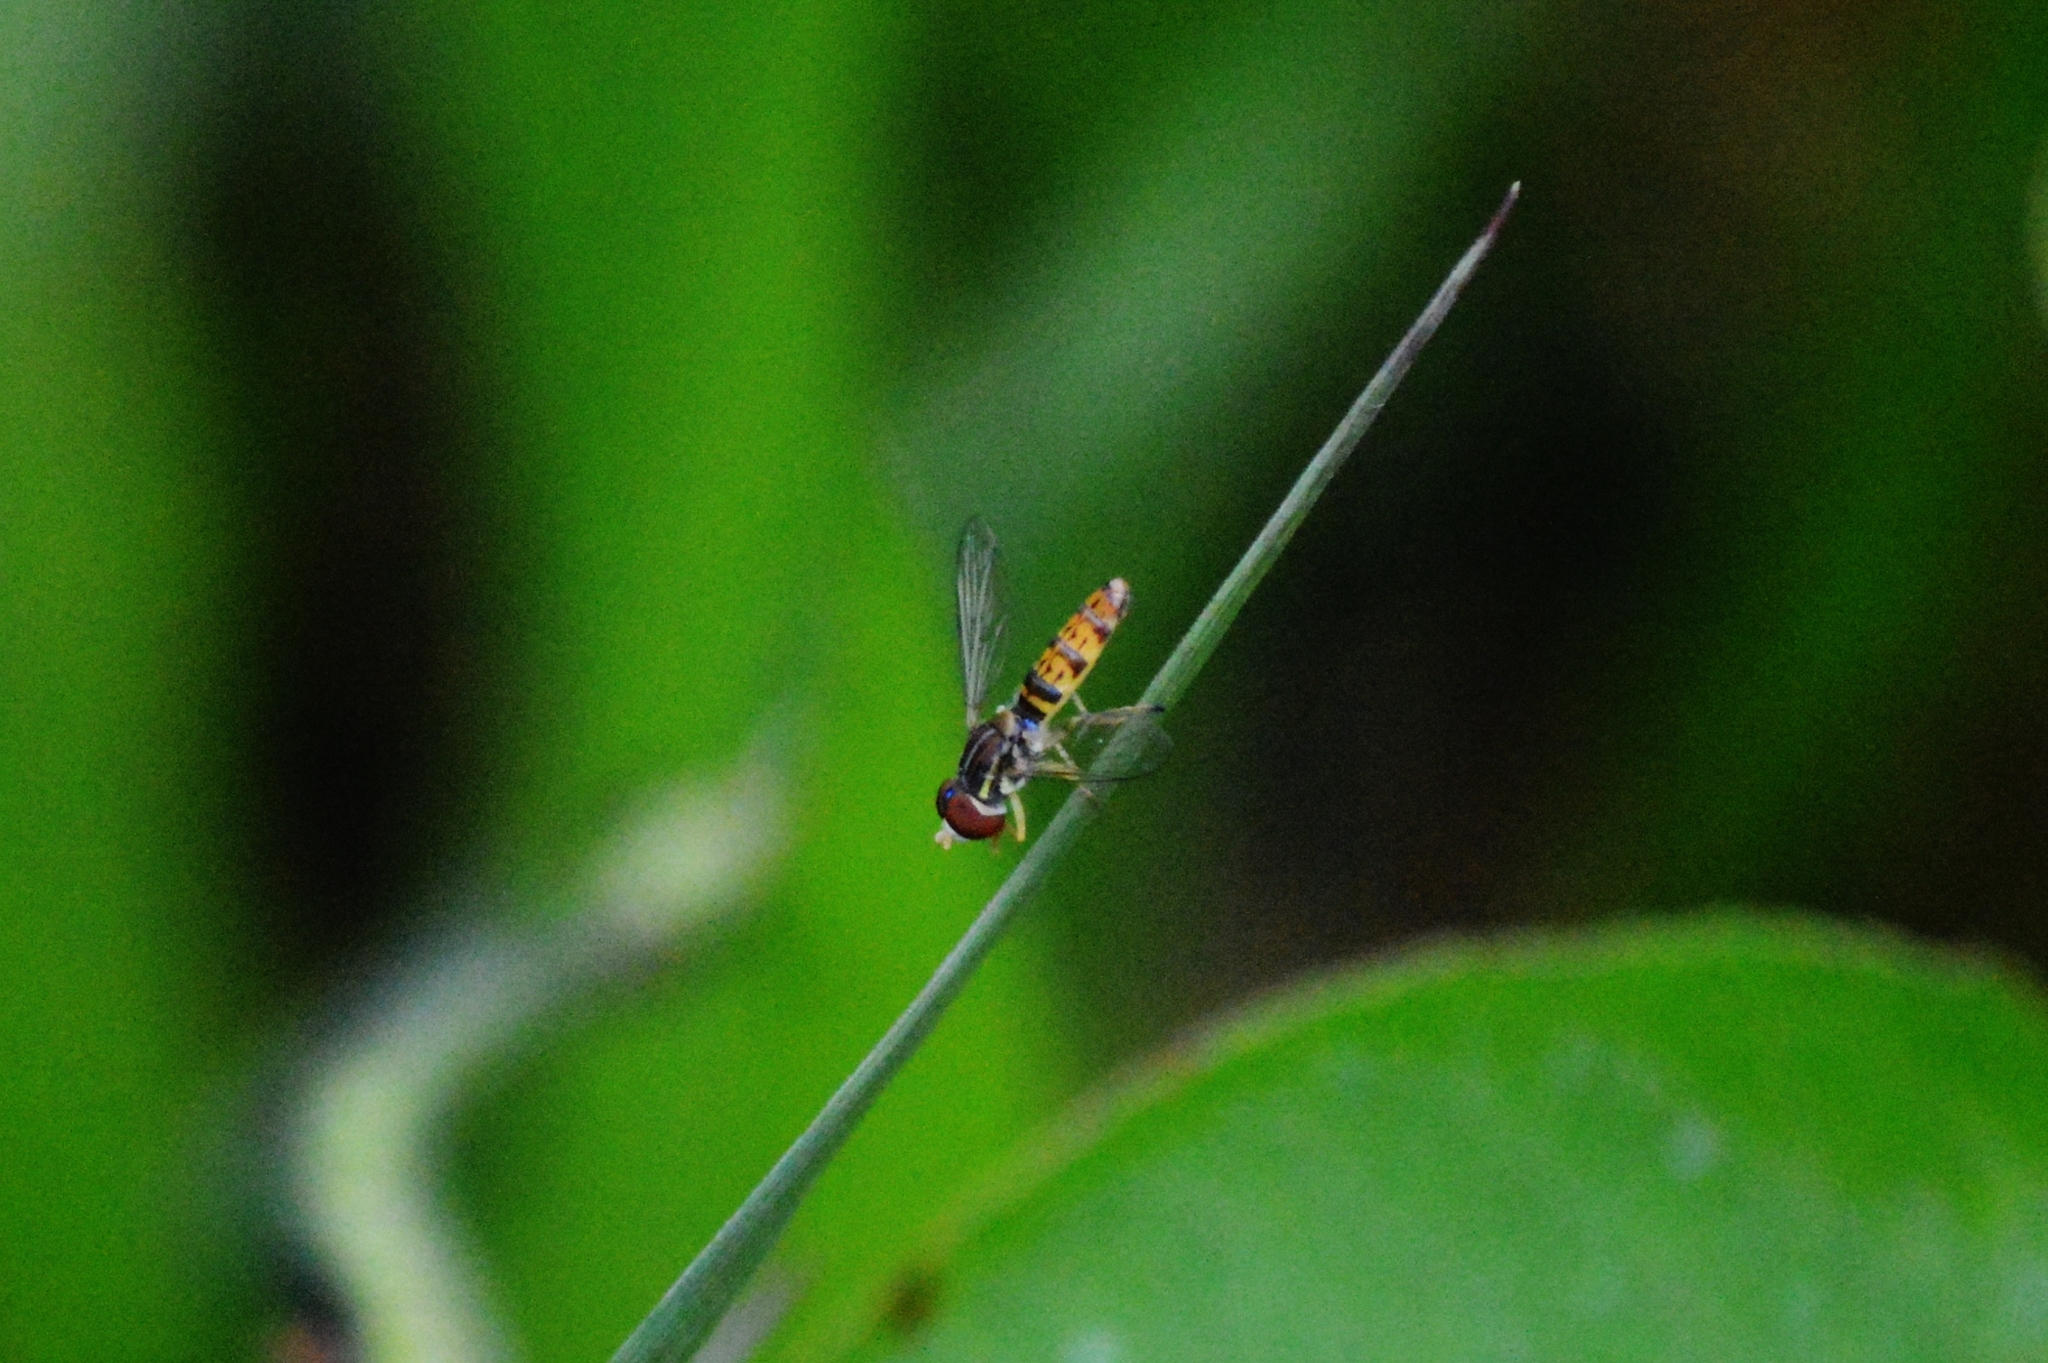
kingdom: Animalia
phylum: Arthropoda
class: Insecta
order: Diptera
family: Syrphidae
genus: Toxomerus
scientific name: Toxomerus
